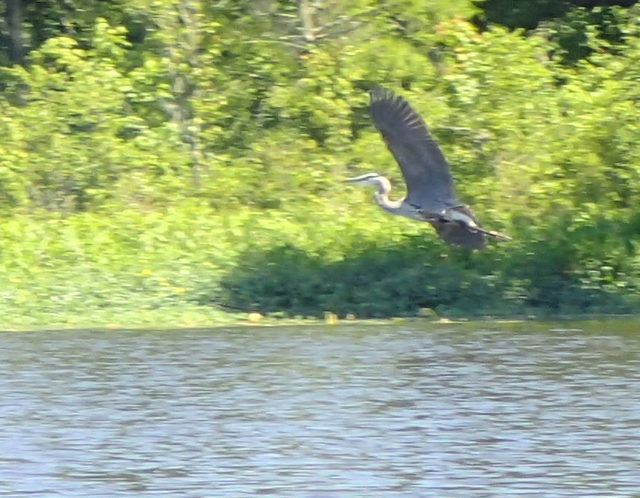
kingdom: Animalia
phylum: Chordata
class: Aves
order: Pelecaniformes
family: Ardeidae
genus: Ardea
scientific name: Ardea herodias
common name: Great blue heron
